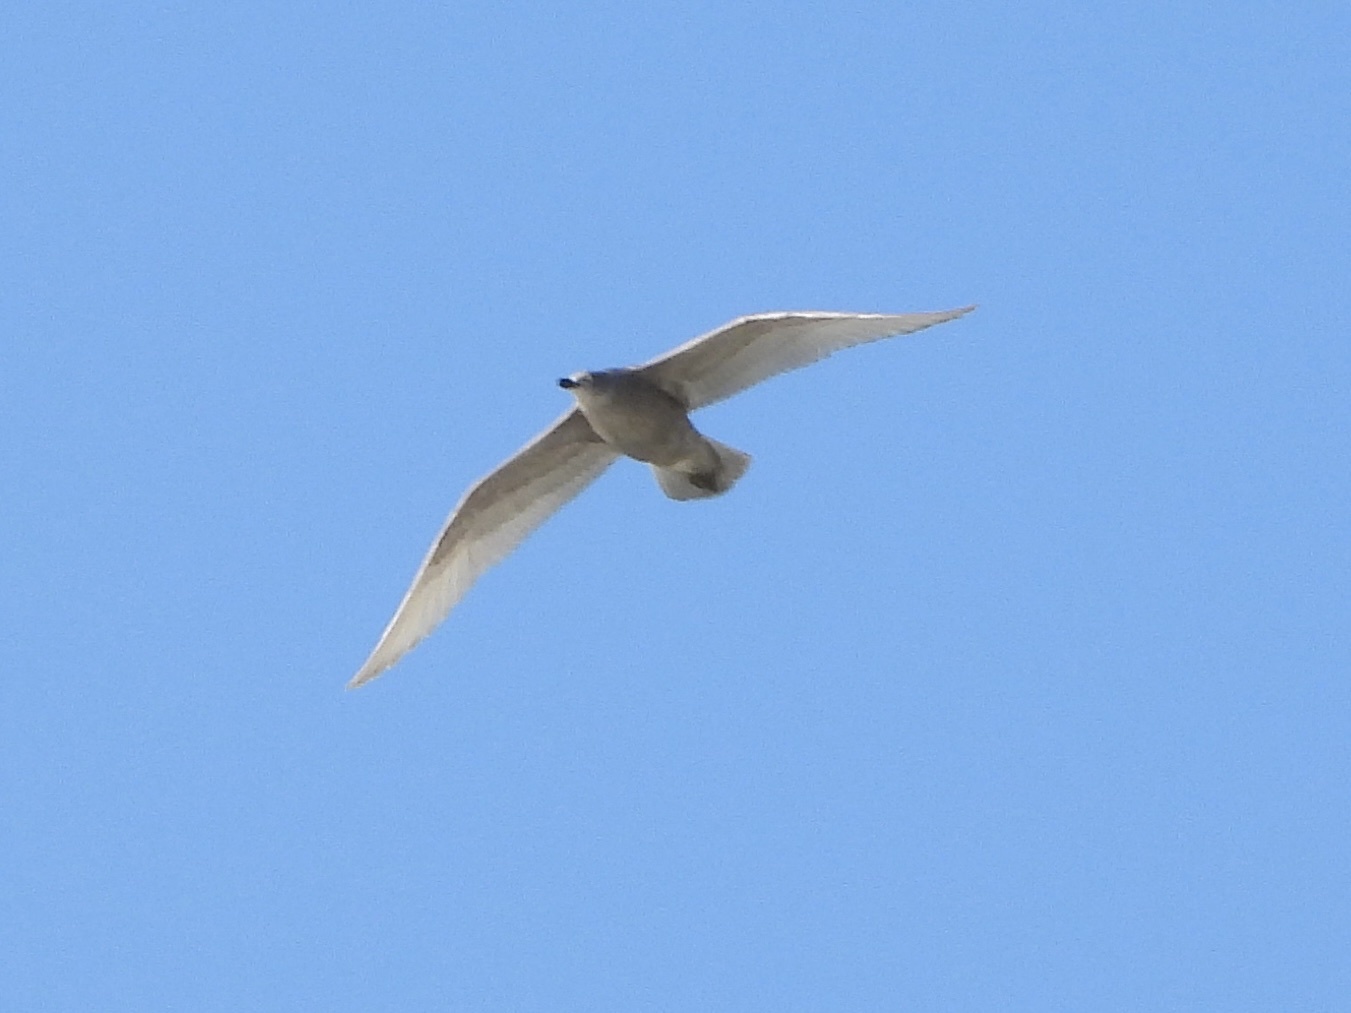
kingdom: Animalia
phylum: Chordata
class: Aves
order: Charadriiformes
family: Laridae
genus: Larus
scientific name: Larus glaucescens
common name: Glaucous-winged gull
